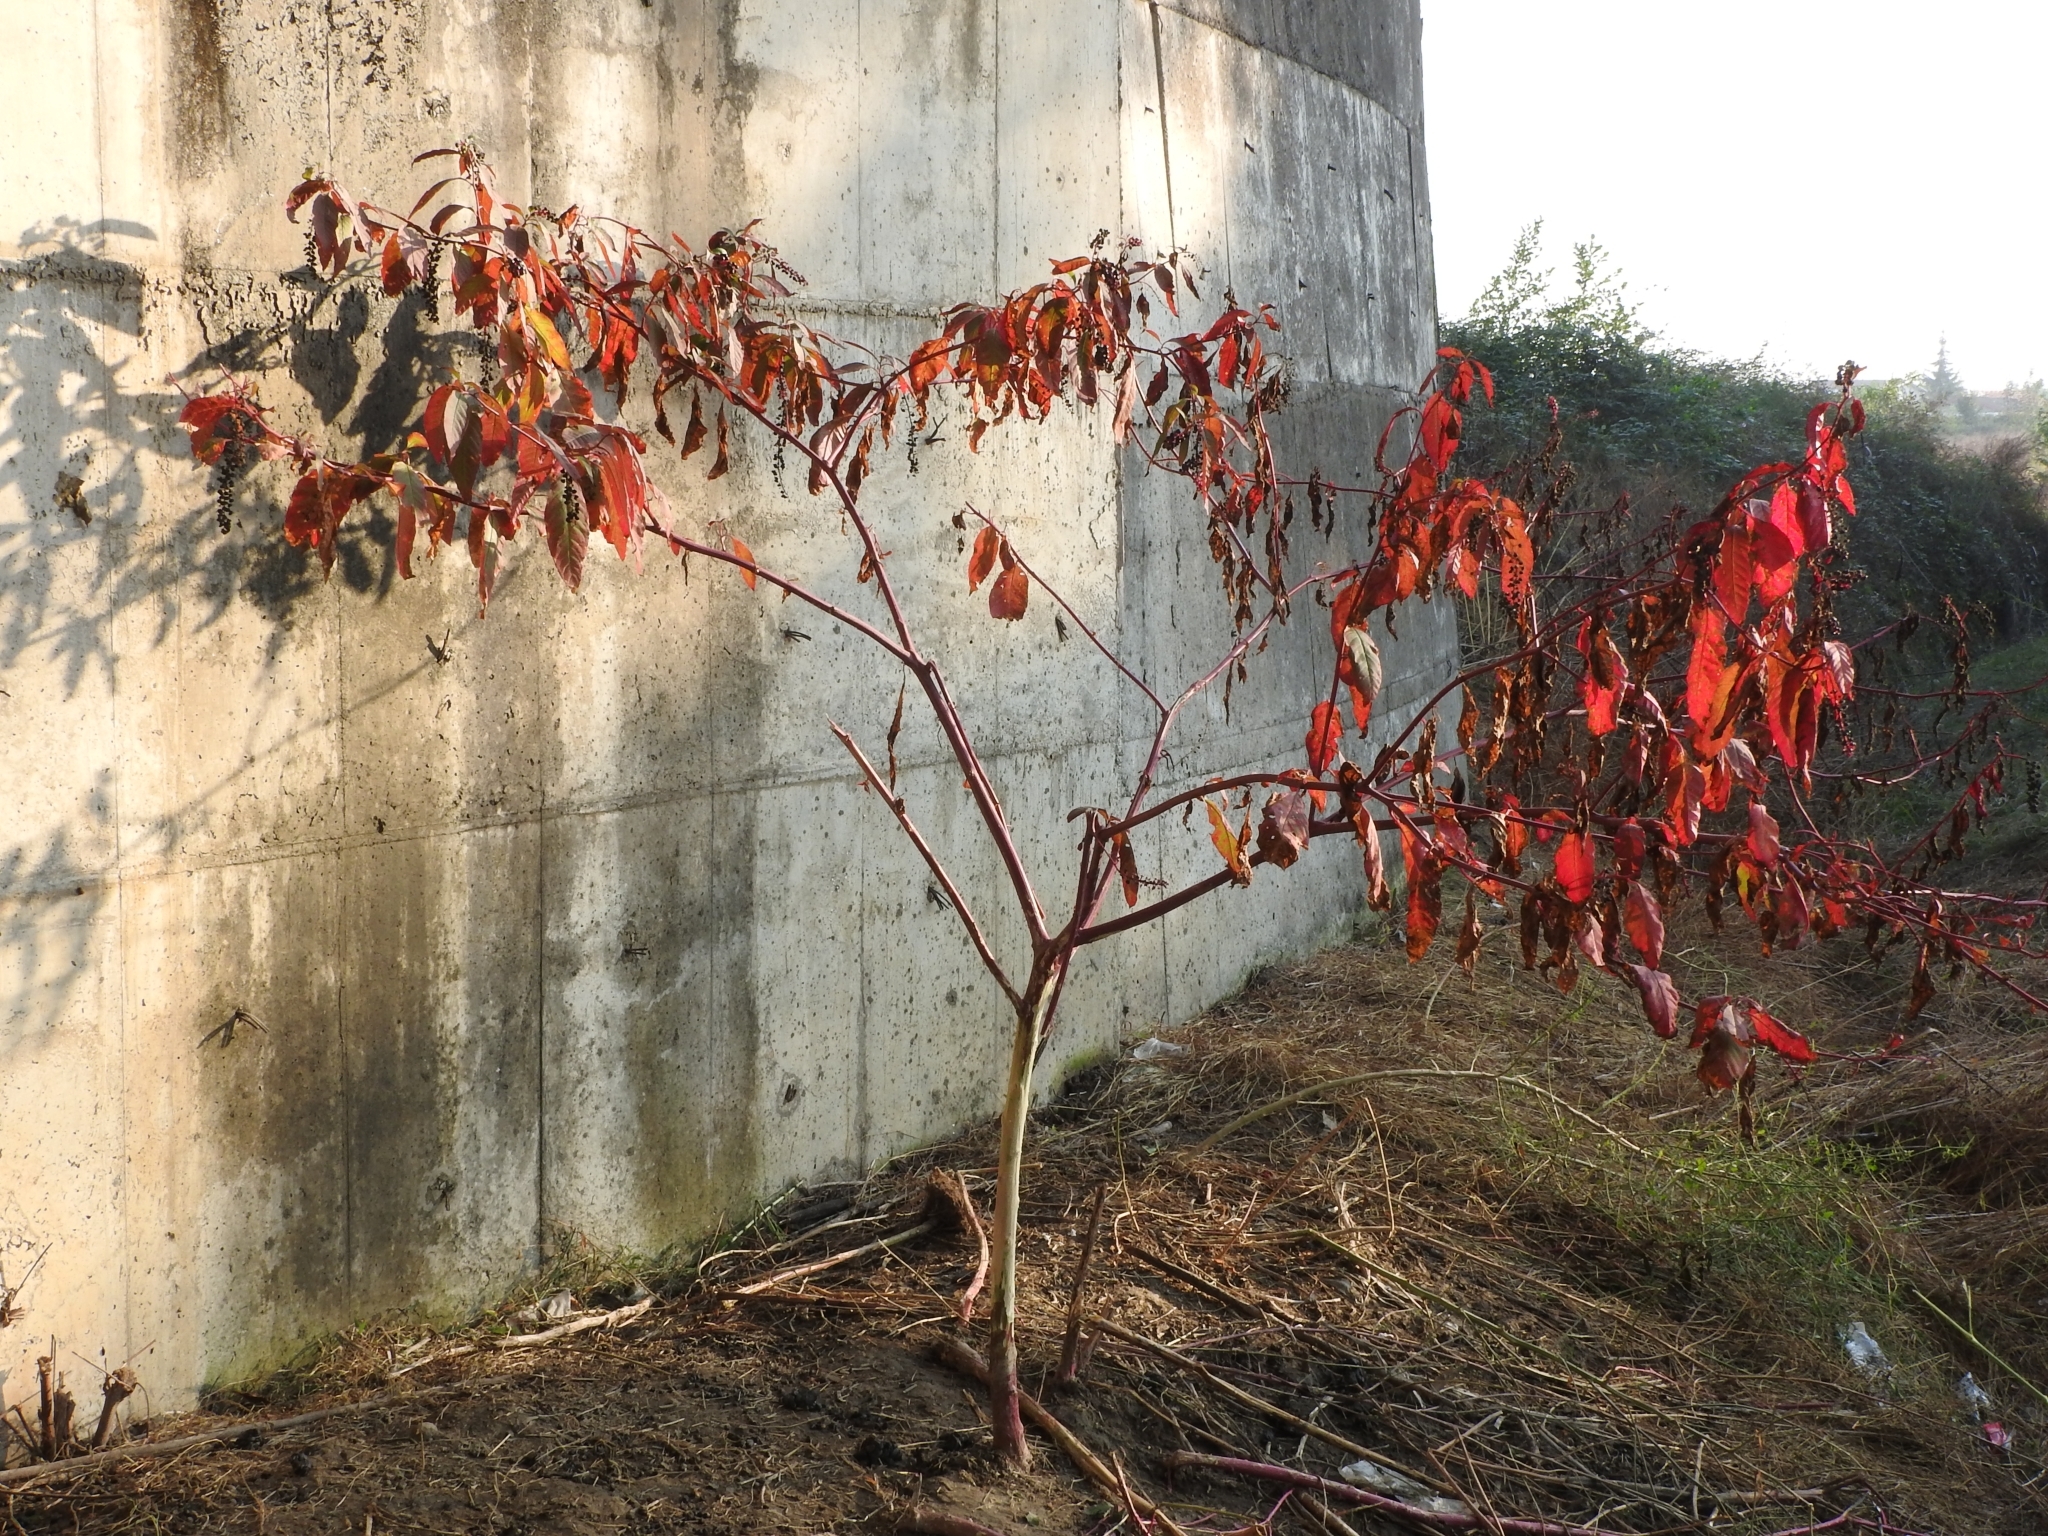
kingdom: Plantae
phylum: Tracheophyta
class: Magnoliopsida
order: Caryophyllales
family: Phytolaccaceae
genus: Phytolacca
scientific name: Phytolacca americana
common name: American pokeweed
